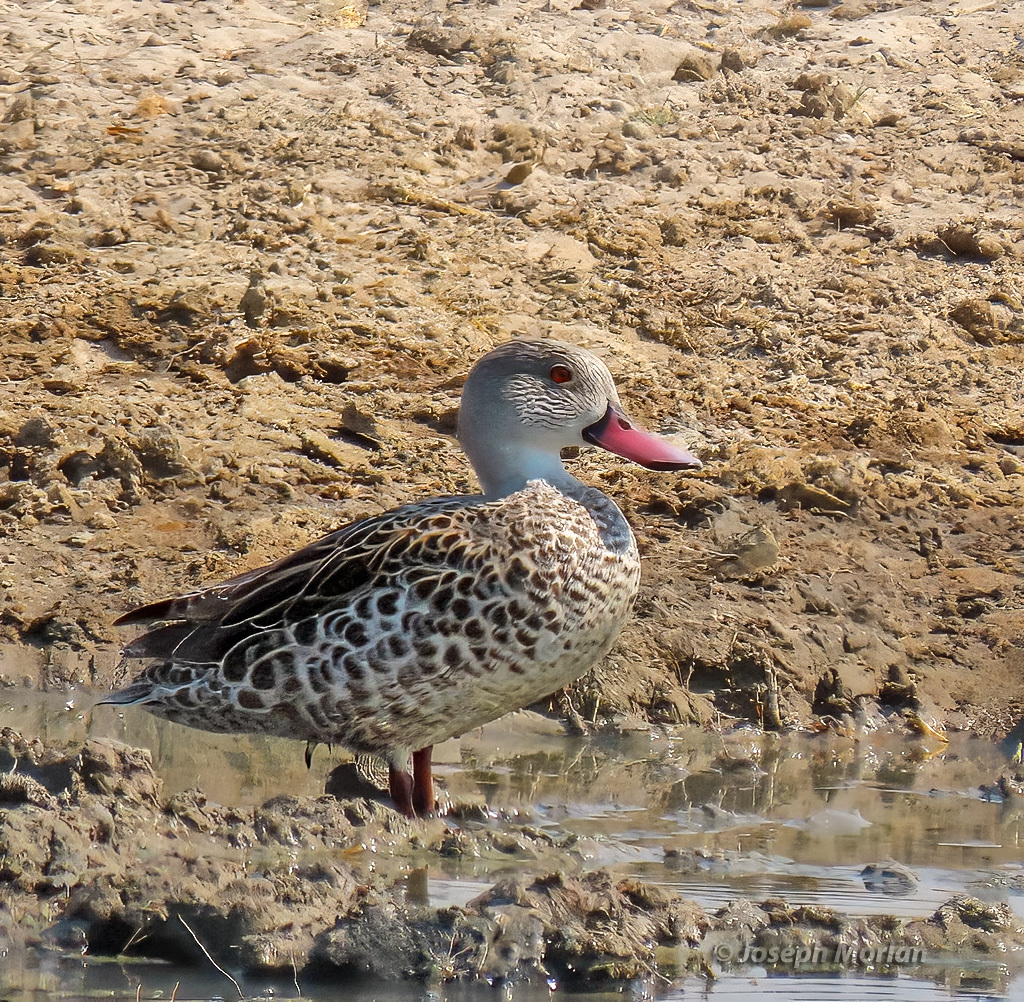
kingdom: Animalia
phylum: Chordata
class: Aves
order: Anseriformes
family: Anatidae
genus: Anas
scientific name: Anas capensis
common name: Cape teal
